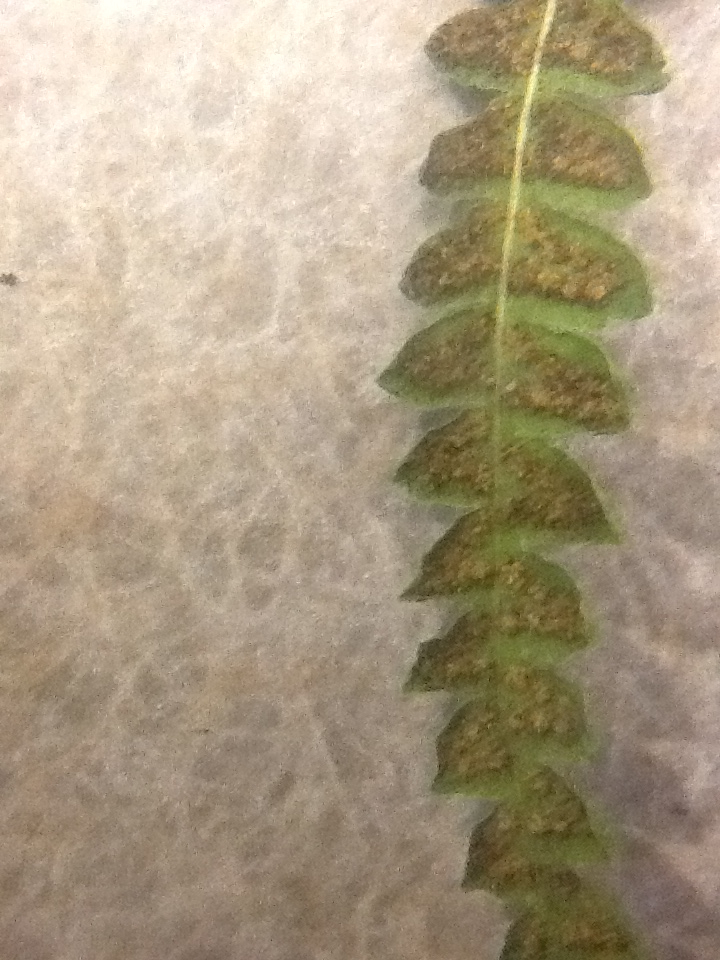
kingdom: Plantae
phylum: Tracheophyta
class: Polypodiopsida
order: Polypodiales
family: Thelypteridaceae
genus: Thelypteris
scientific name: Thelypteris palustris
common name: Marsh fern
